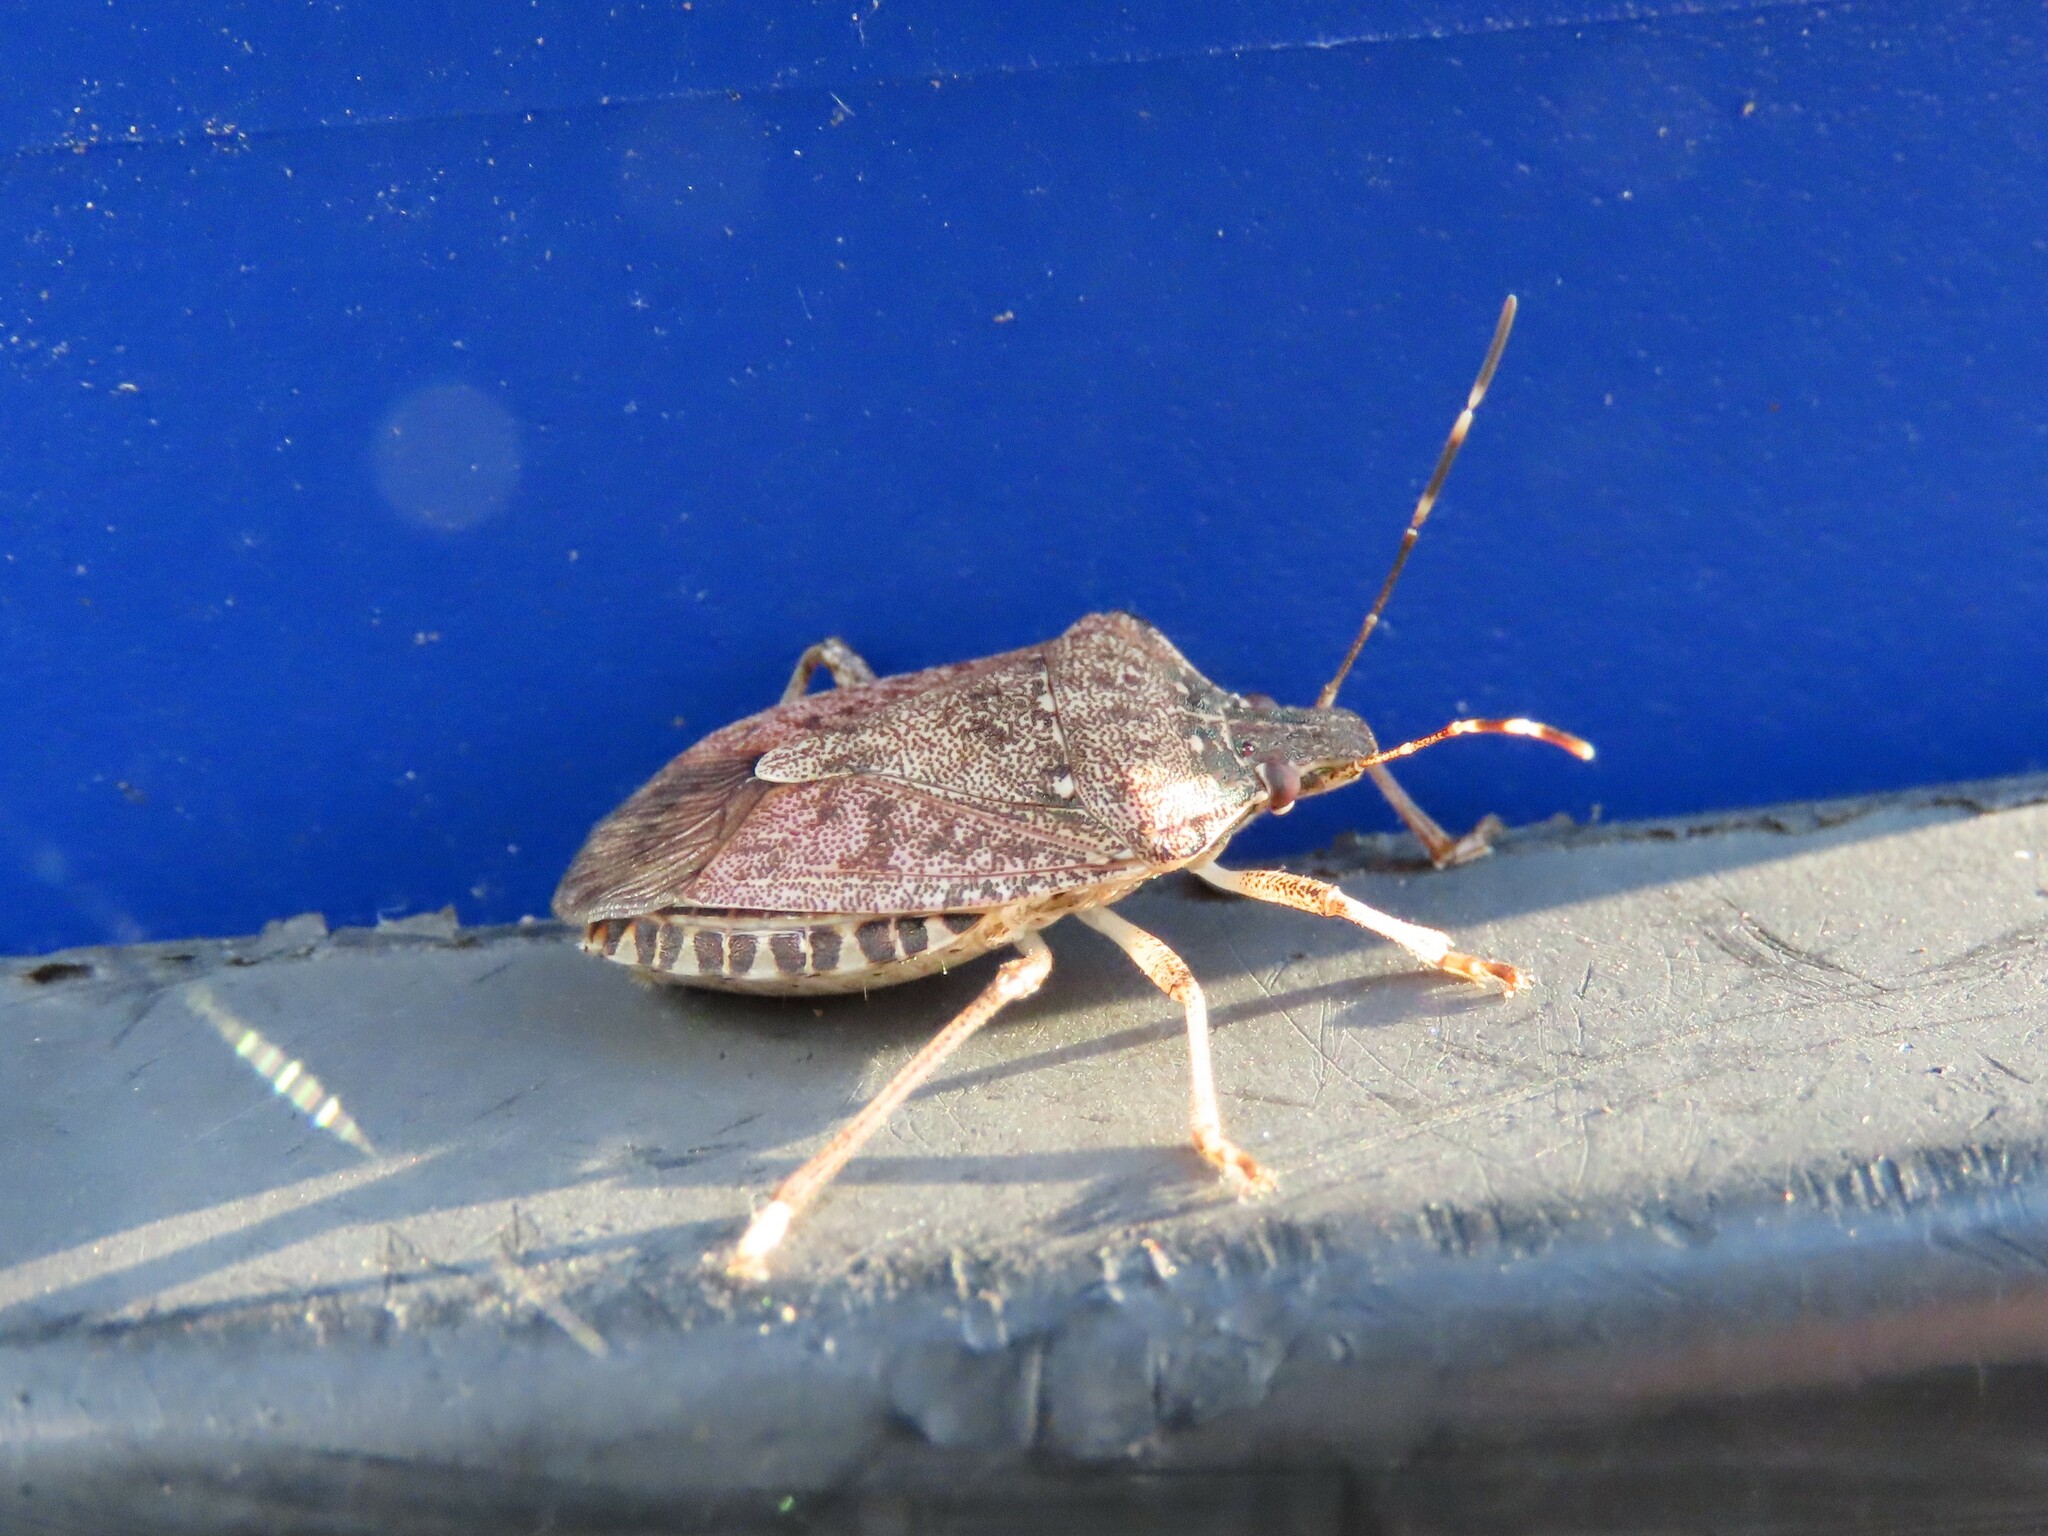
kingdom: Animalia
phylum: Arthropoda
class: Insecta
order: Hemiptera
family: Pentatomidae
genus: Halyomorpha
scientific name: Halyomorpha halys
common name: Brown marmorated stink bug
